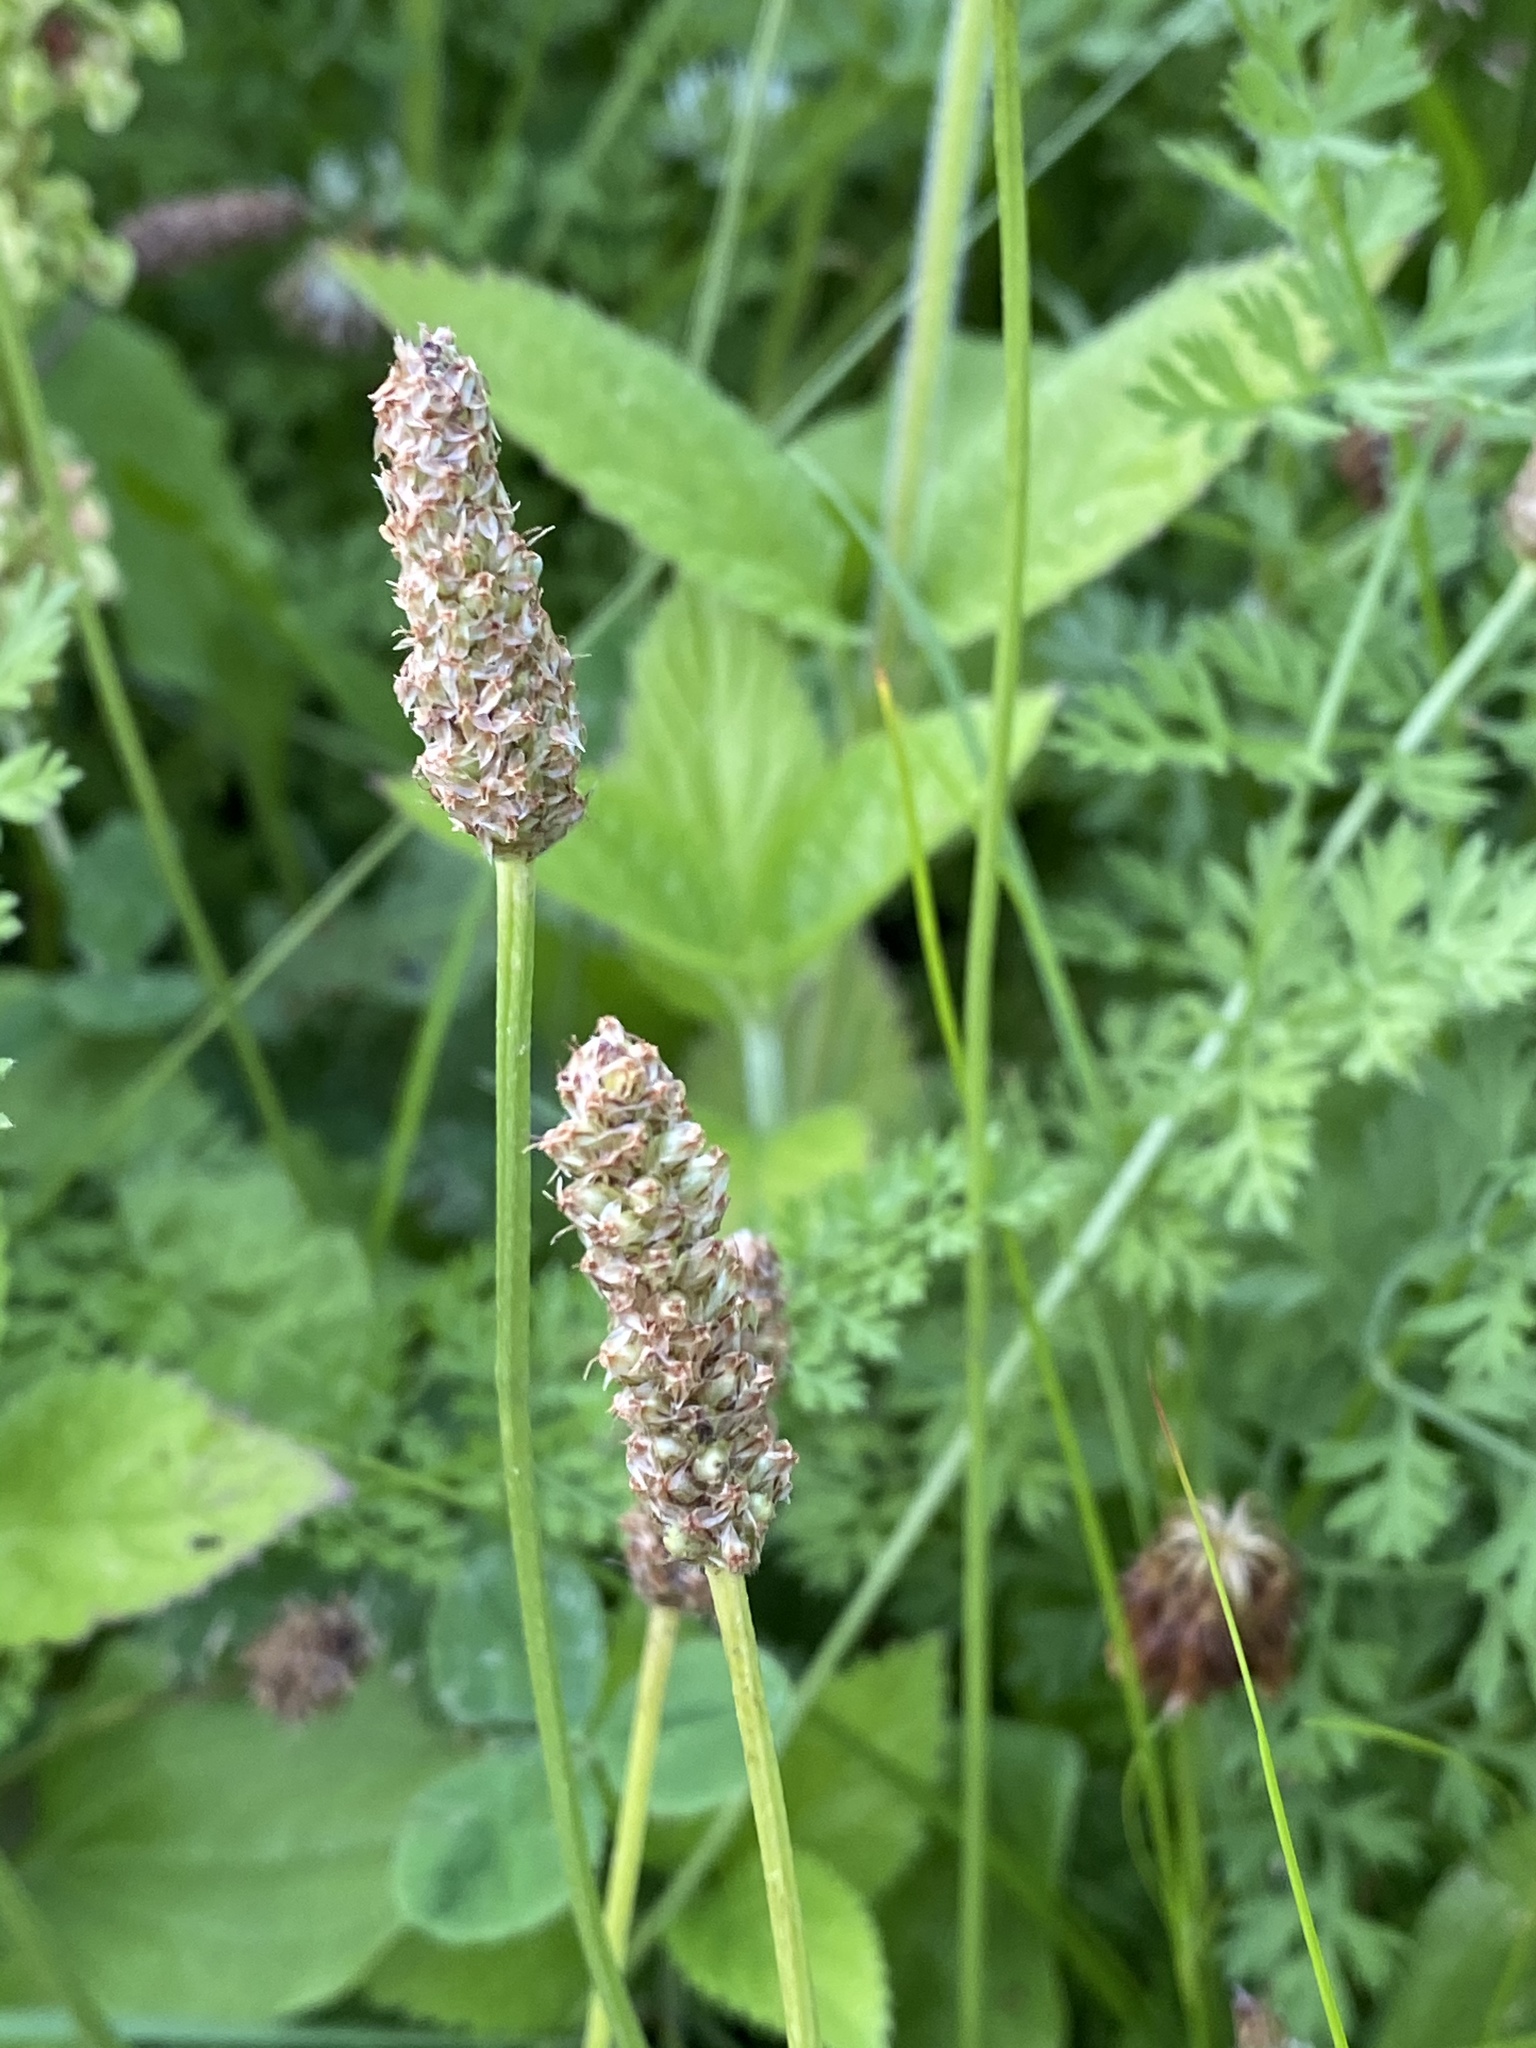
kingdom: Plantae
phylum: Tracheophyta
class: Magnoliopsida
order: Lamiales
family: Plantaginaceae
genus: Plantago
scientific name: Plantago lanceolata
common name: Ribwort plantain
